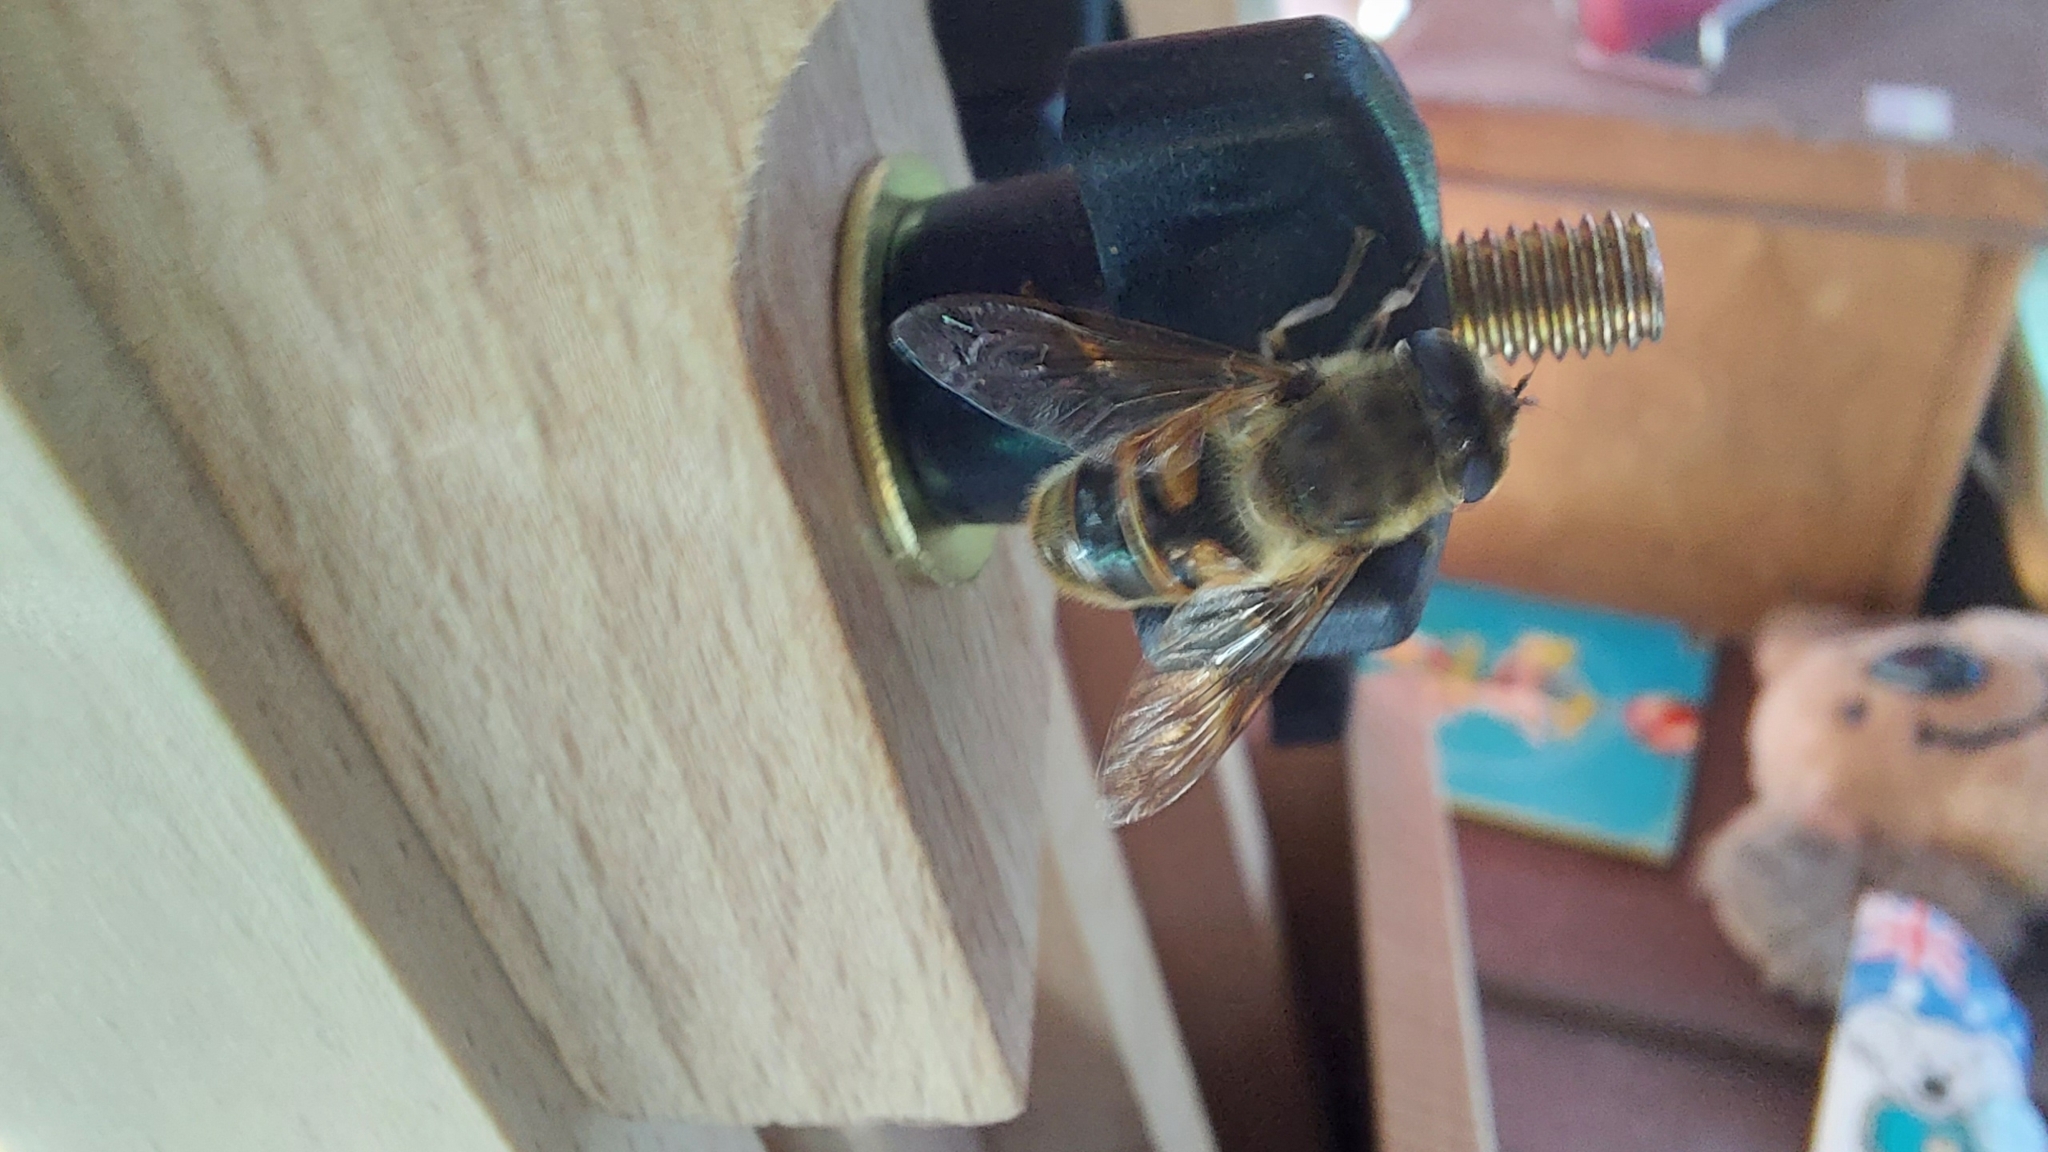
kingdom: Animalia
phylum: Arthropoda
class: Insecta
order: Diptera
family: Syrphidae
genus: Eristalis
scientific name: Eristalis tenax
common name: Drone fly
